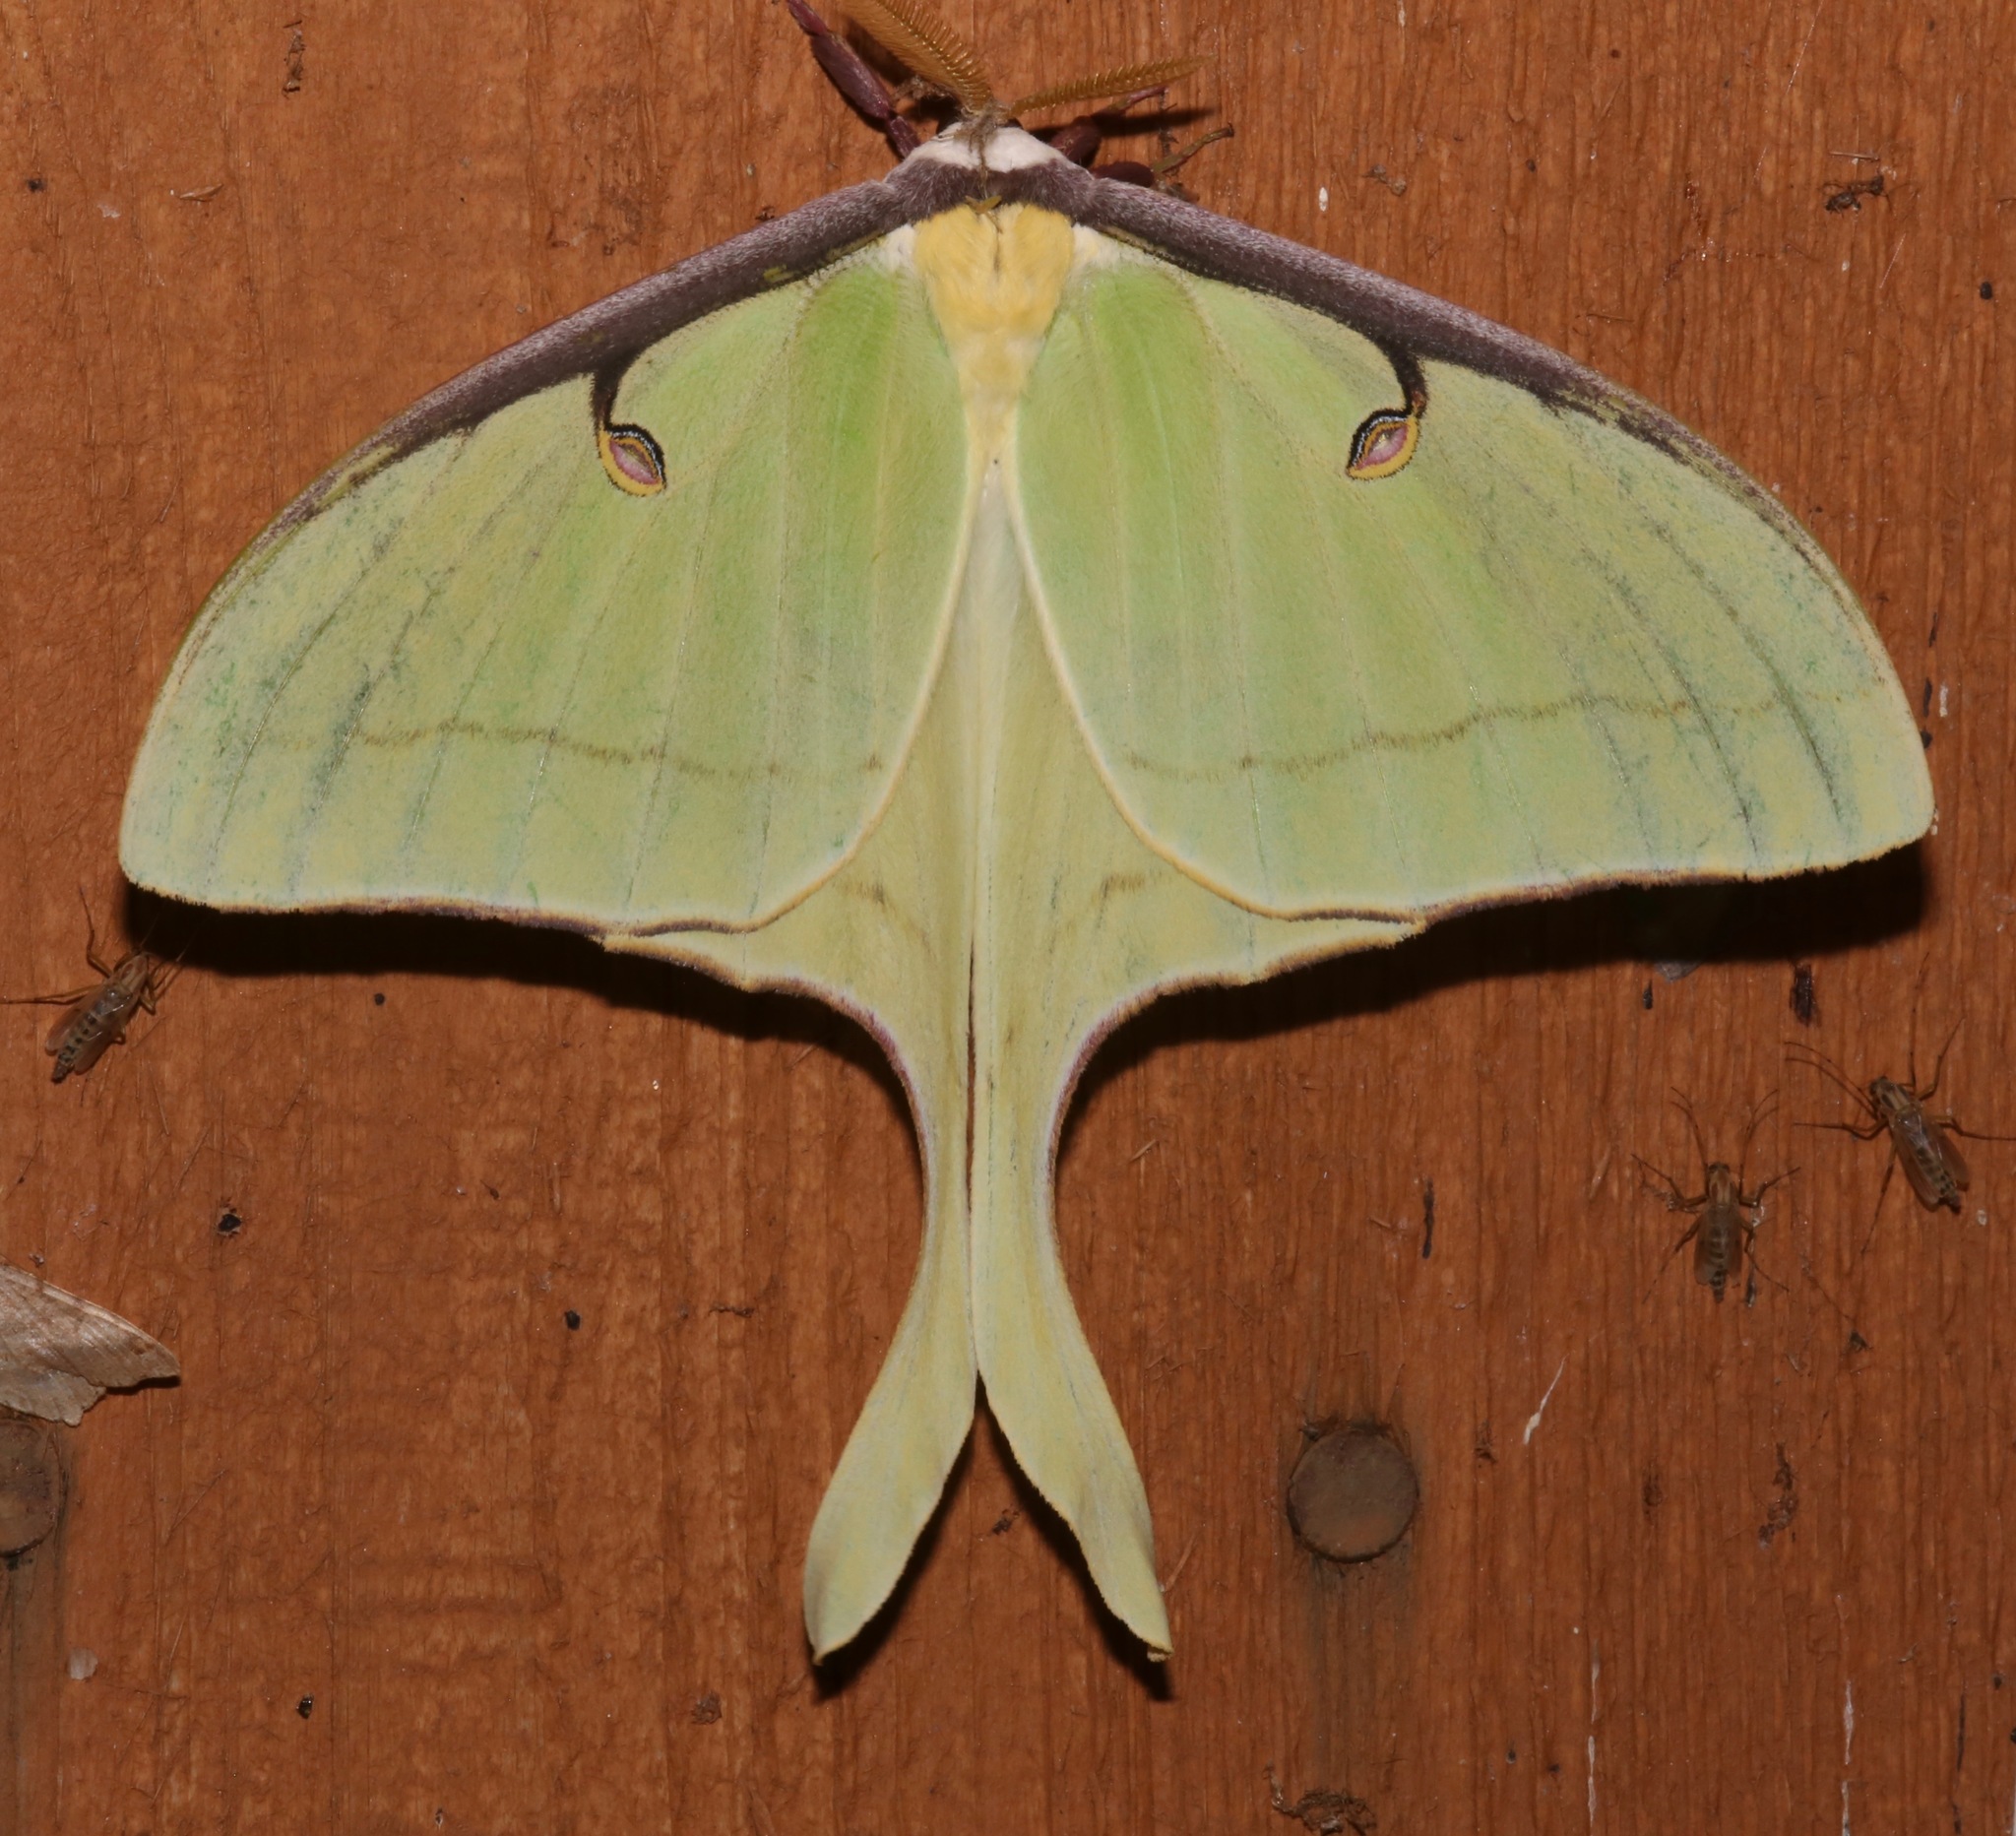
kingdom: Animalia
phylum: Arthropoda
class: Insecta
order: Lepidoptera
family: Saturniidae
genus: Actias
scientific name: Actias luna
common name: Luna moth
